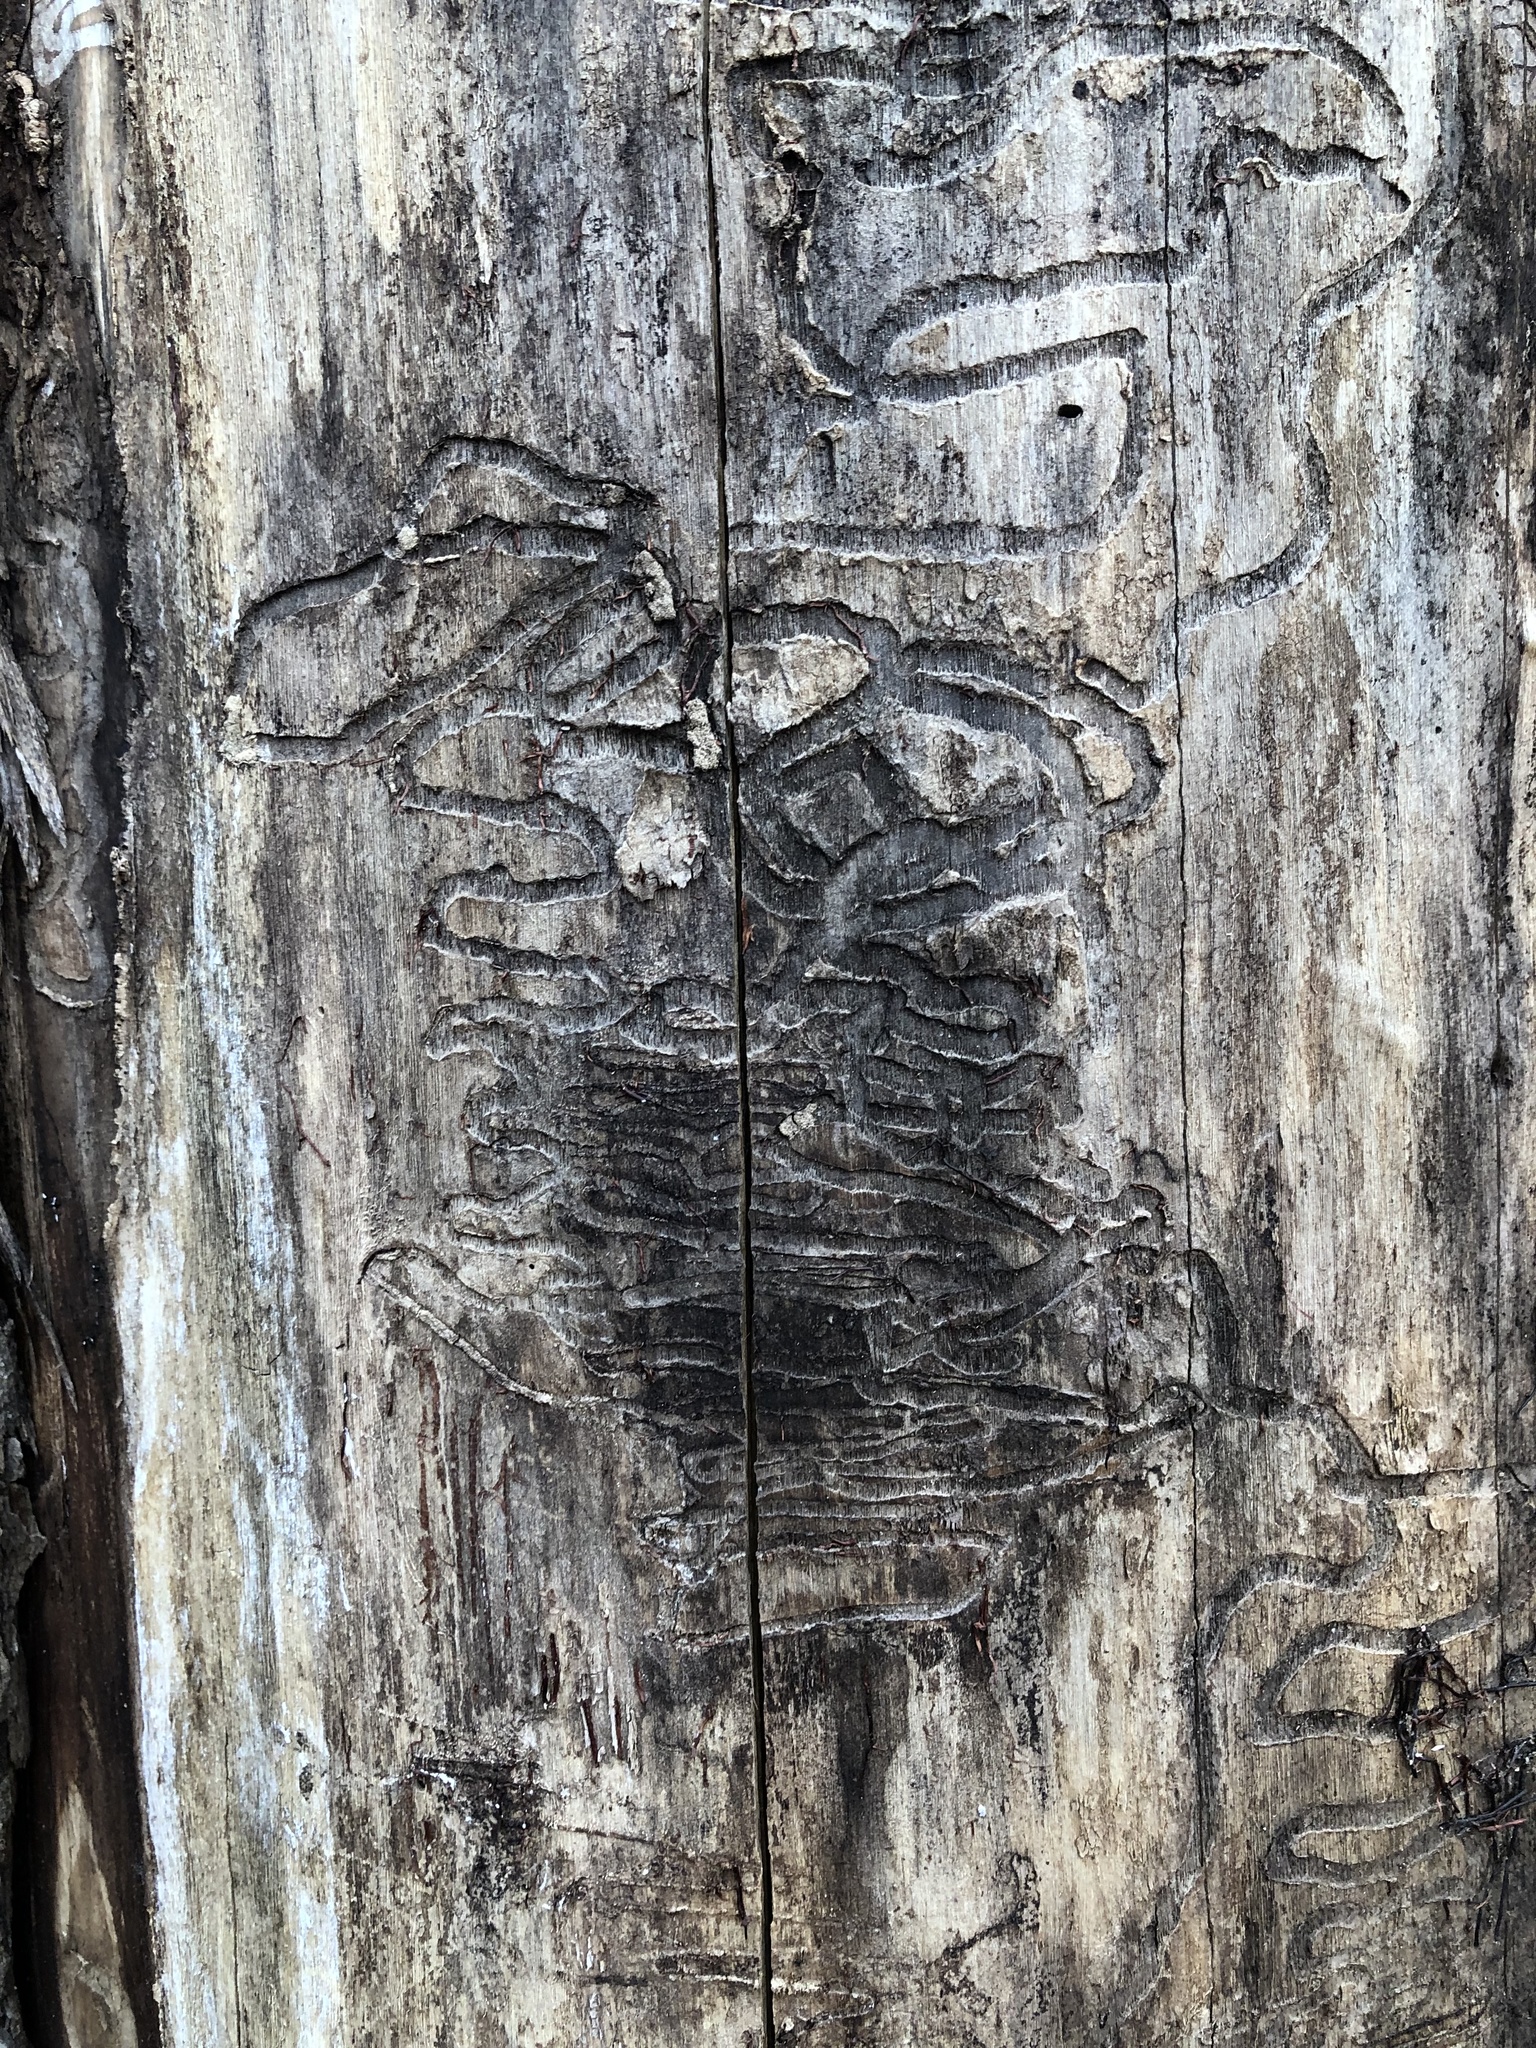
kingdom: Animalia
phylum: Arthropoda
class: Insecta
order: Coleoptera
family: Buprestidae
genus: Agrilus
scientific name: Agrilus planipennis
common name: Emerald ash borer
